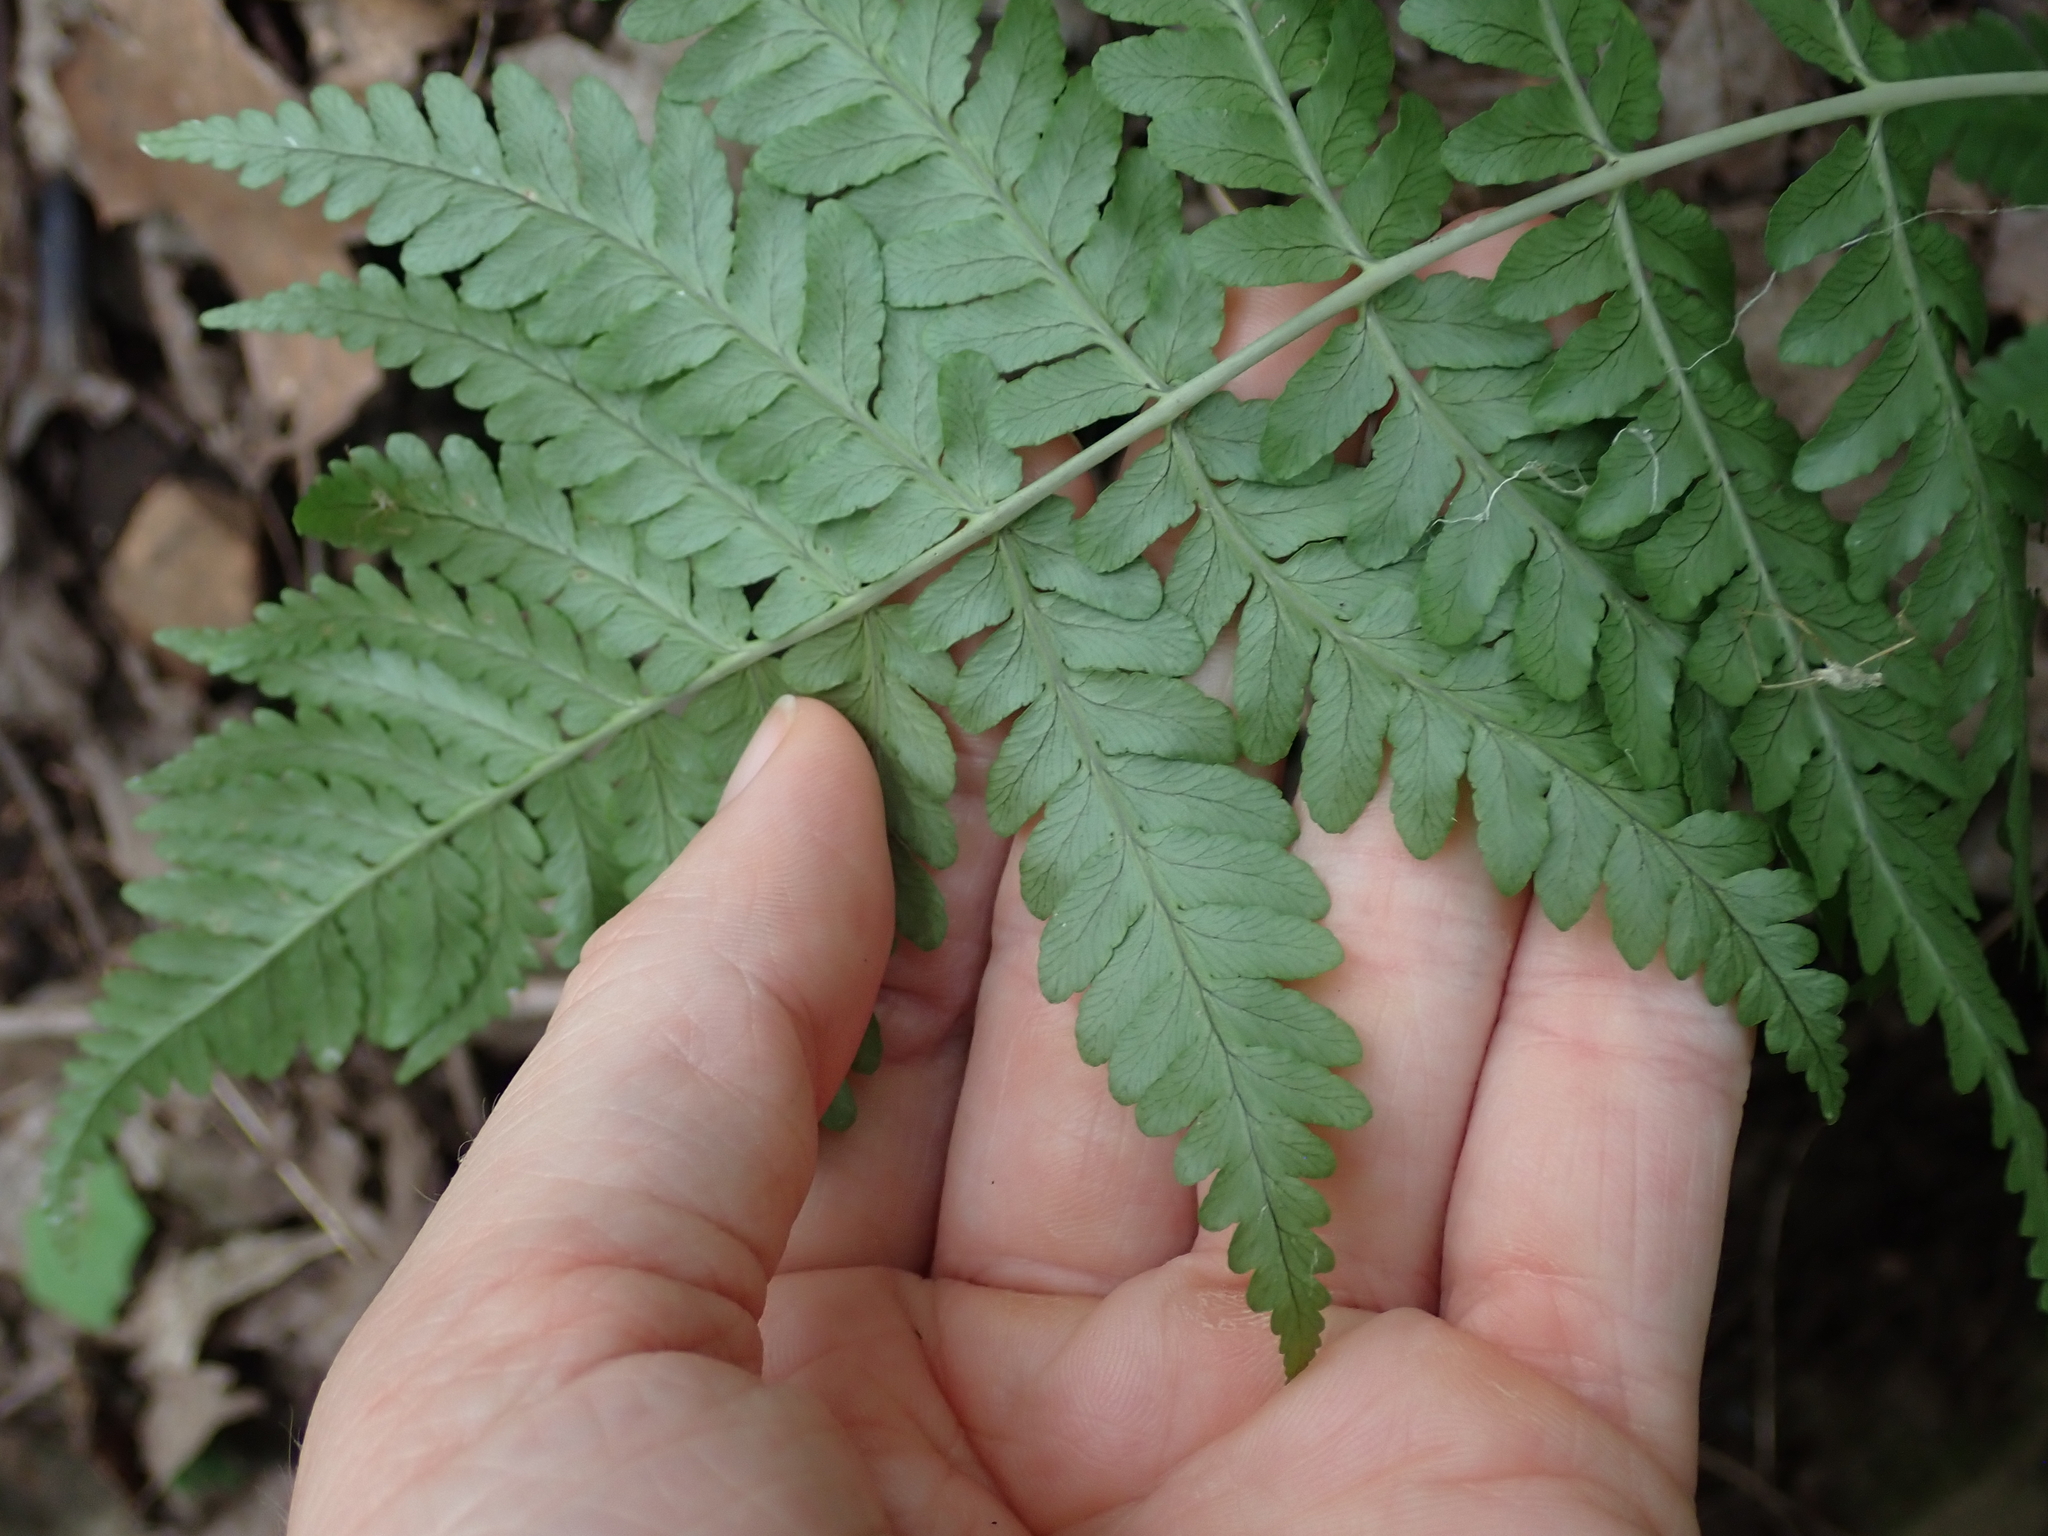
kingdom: Plantae
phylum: Tracheophyta
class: Polypodiopsida
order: Polypodiales
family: Dryopteridaceae
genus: Dryopteris
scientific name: Dryopteris marginalis
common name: Marginal wood fern
